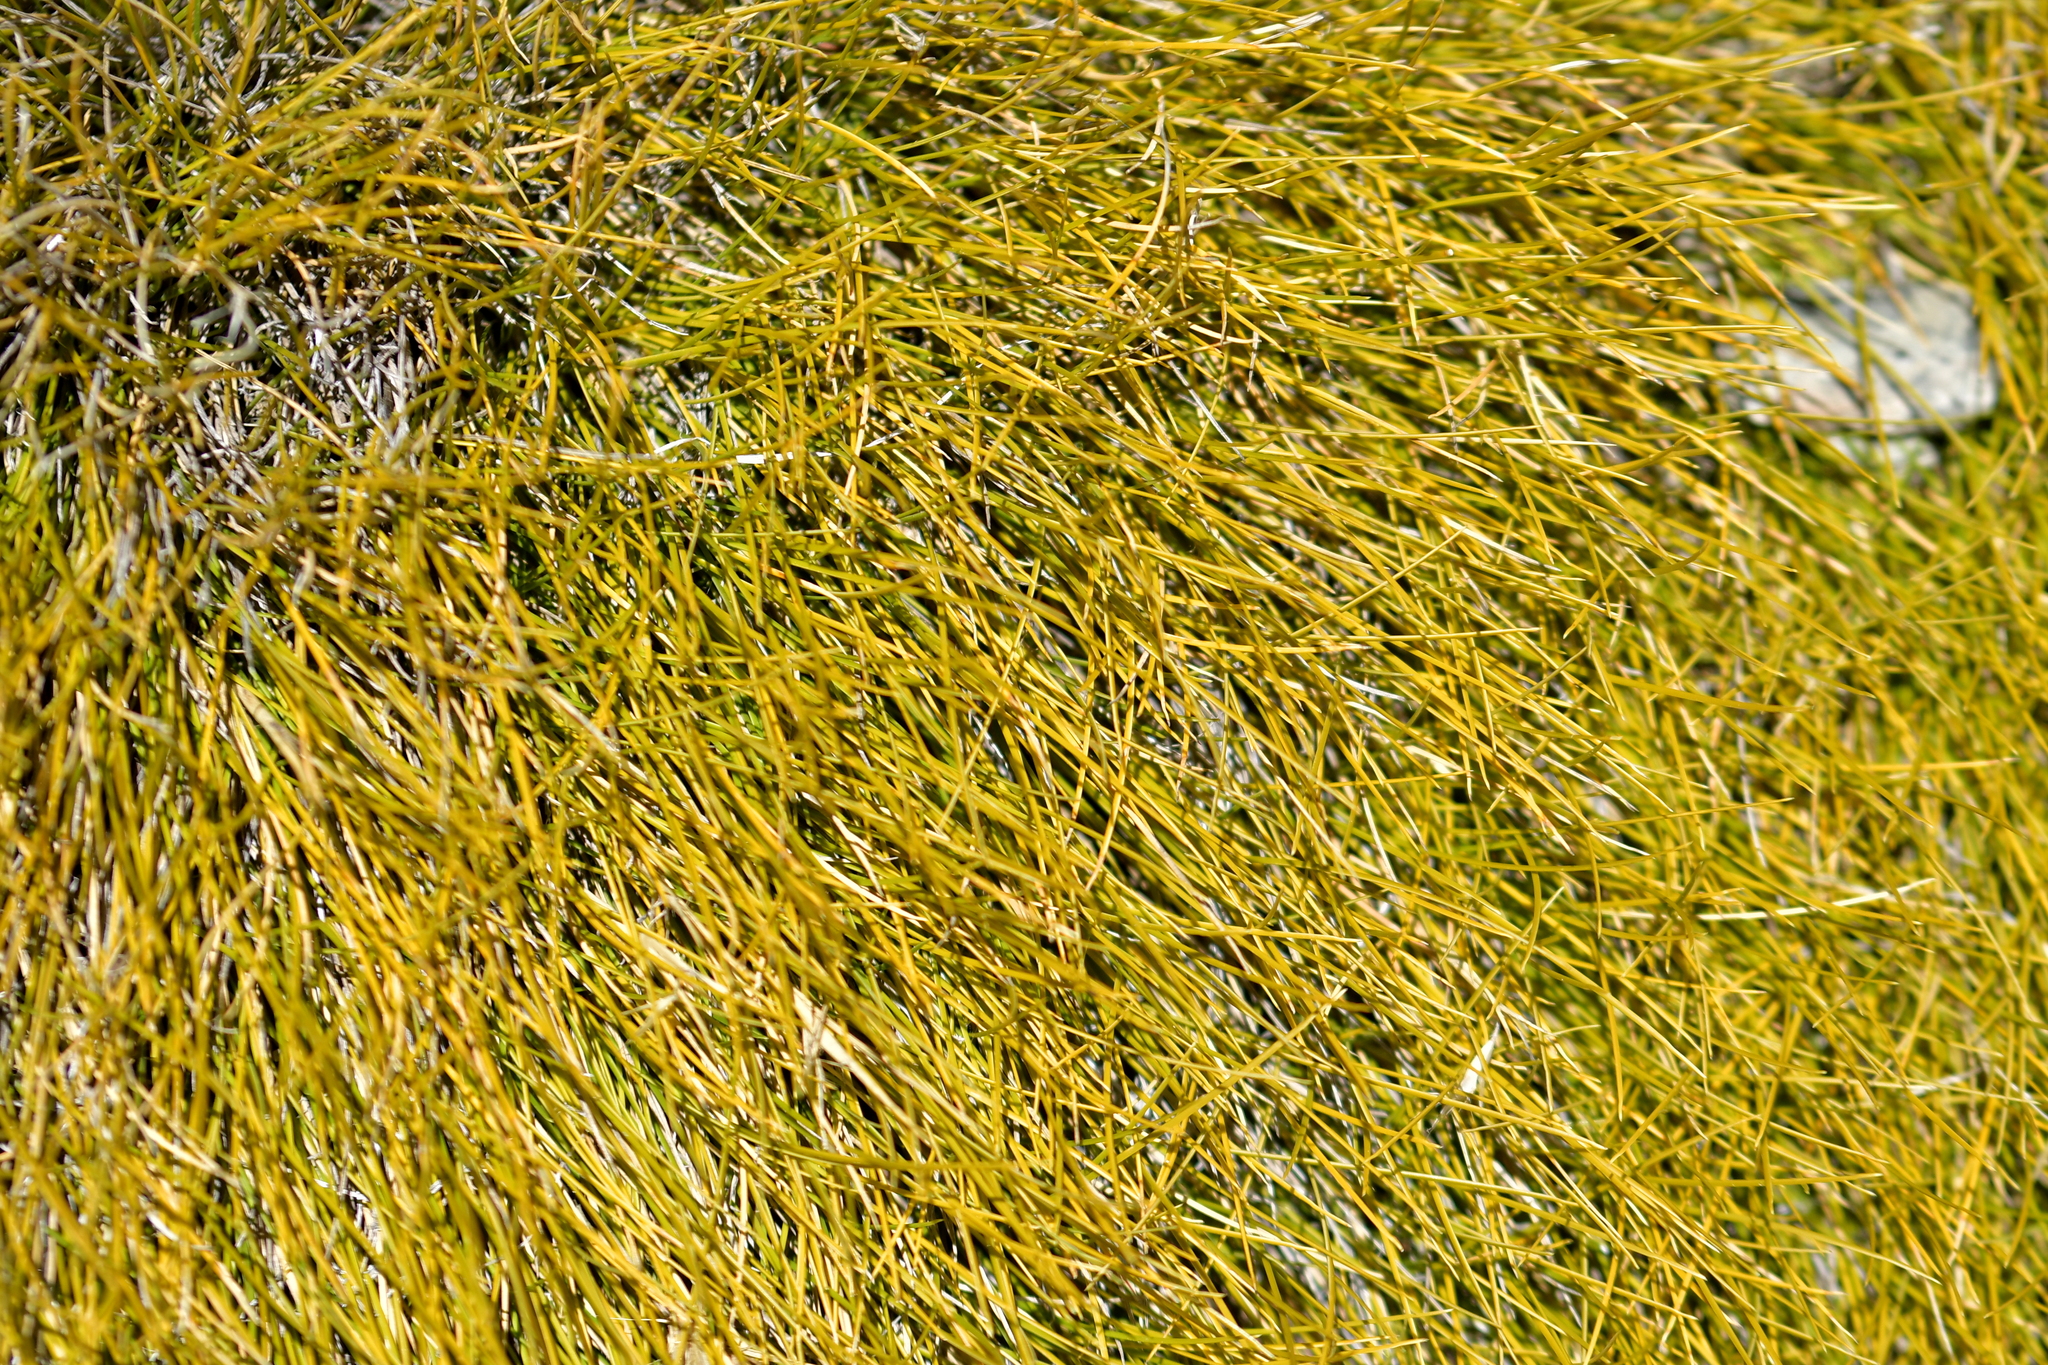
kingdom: Plantae
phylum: Tracheophyta
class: Liliopsida
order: Poales
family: Poaceae
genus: Chionochloa
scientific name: Chionochloa australis
